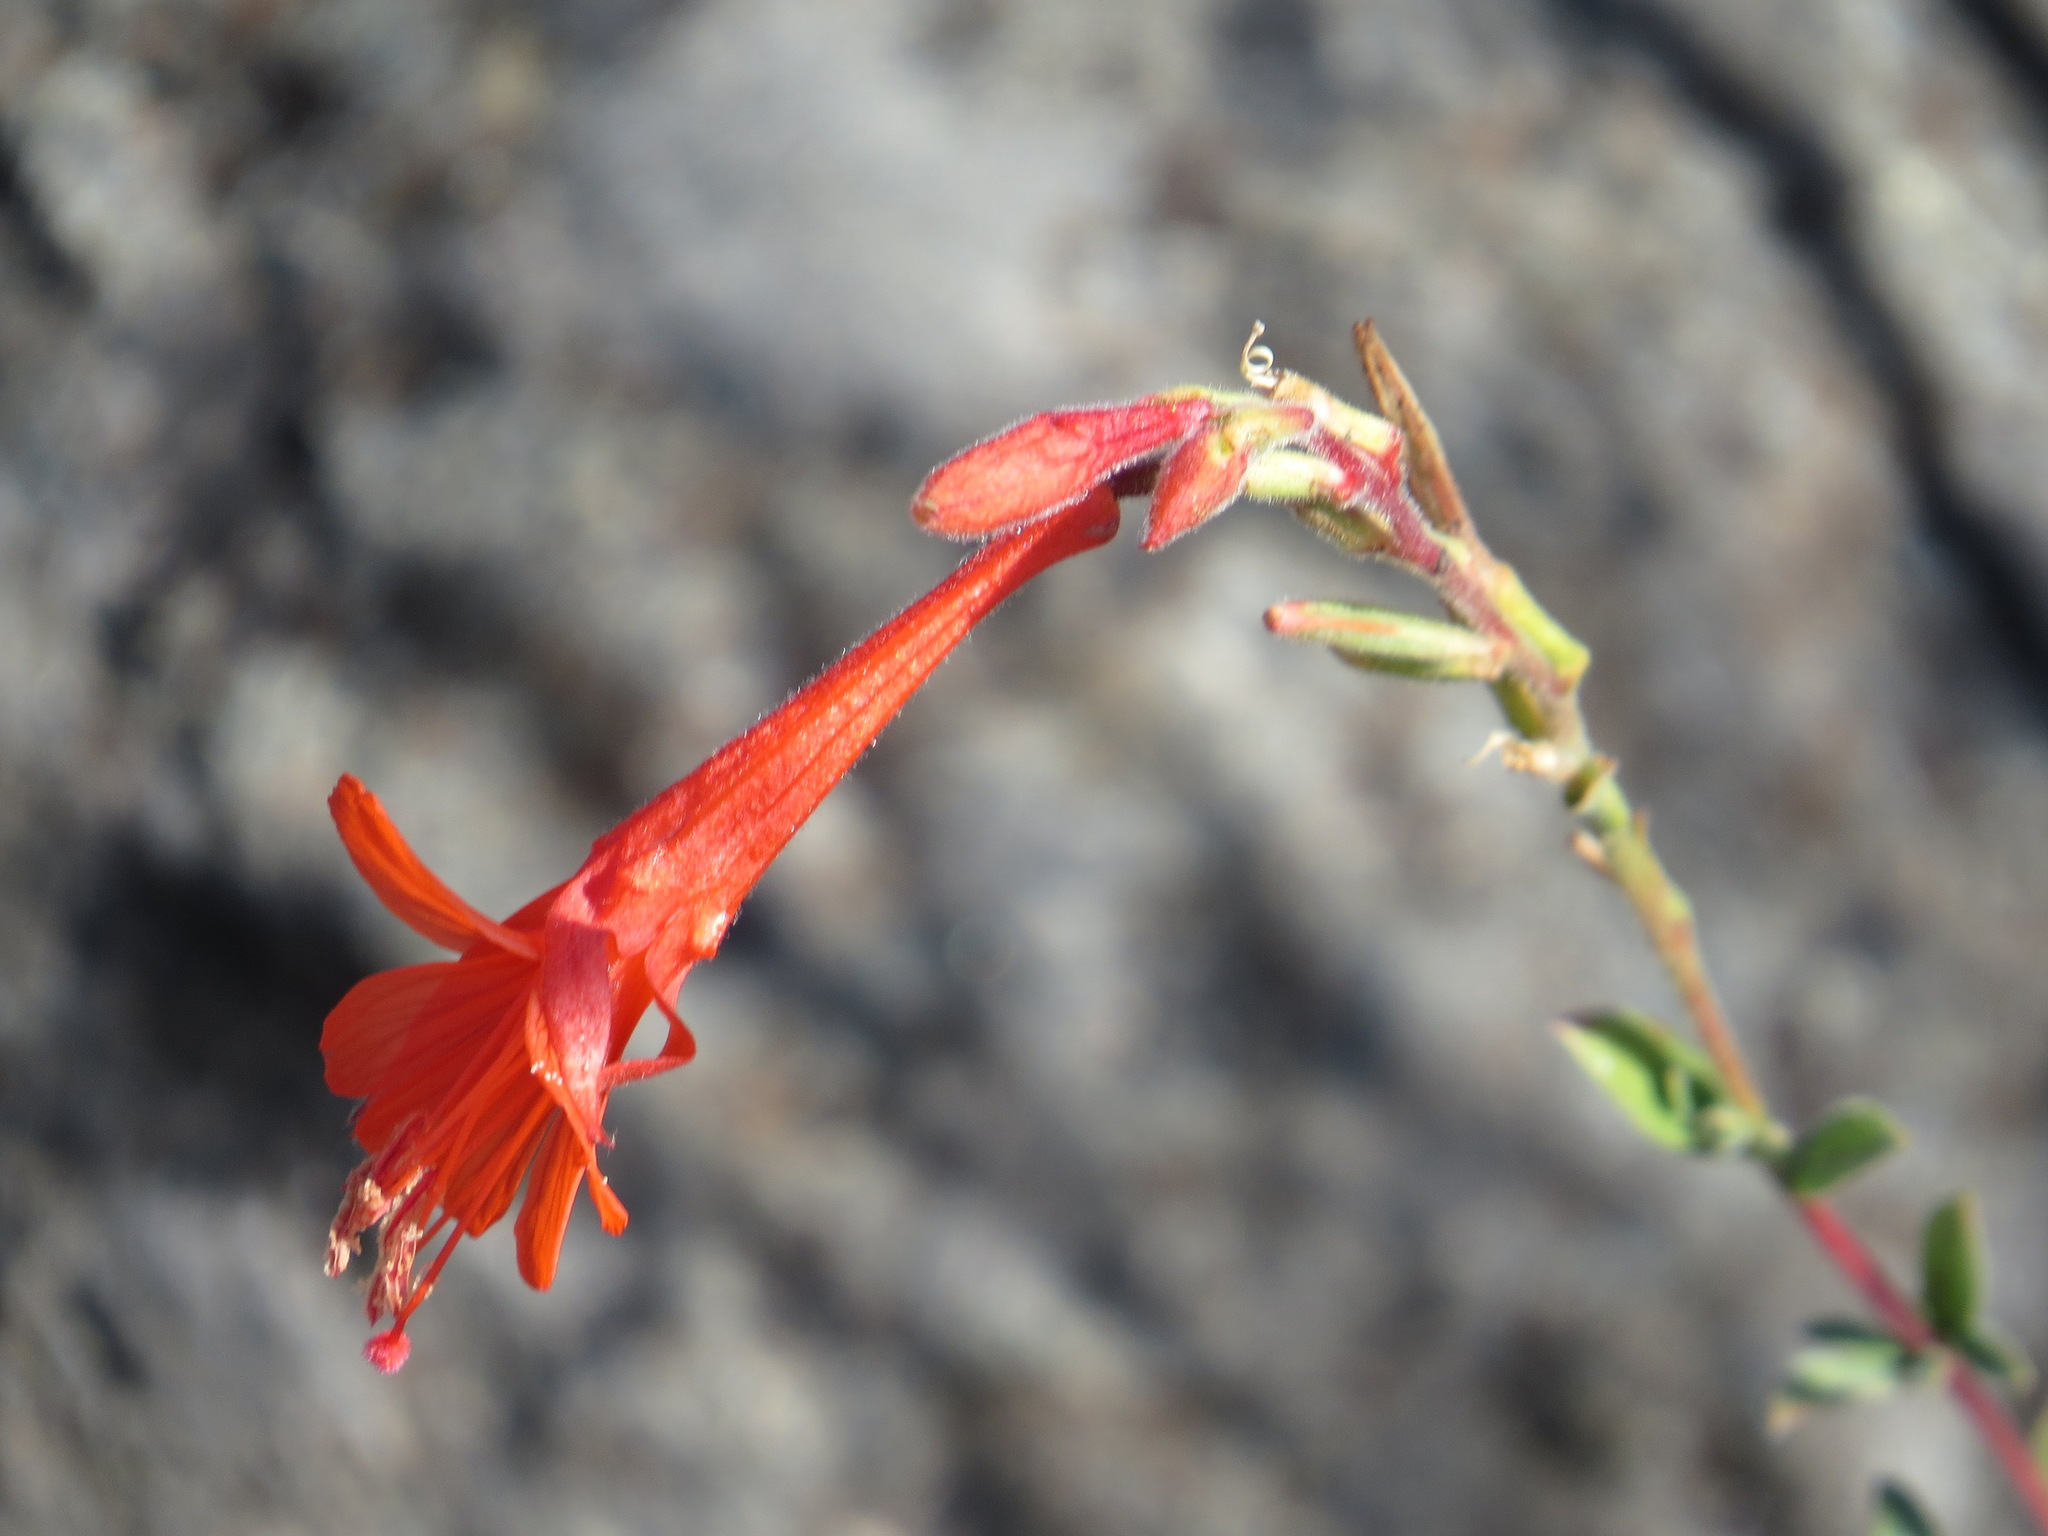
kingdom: Plantae
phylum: Tracheophyta
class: Magnoliopsida
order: Myrtales
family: Onagraceae
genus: Epilobium
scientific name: Epilobium canum
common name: California-fuchsia
